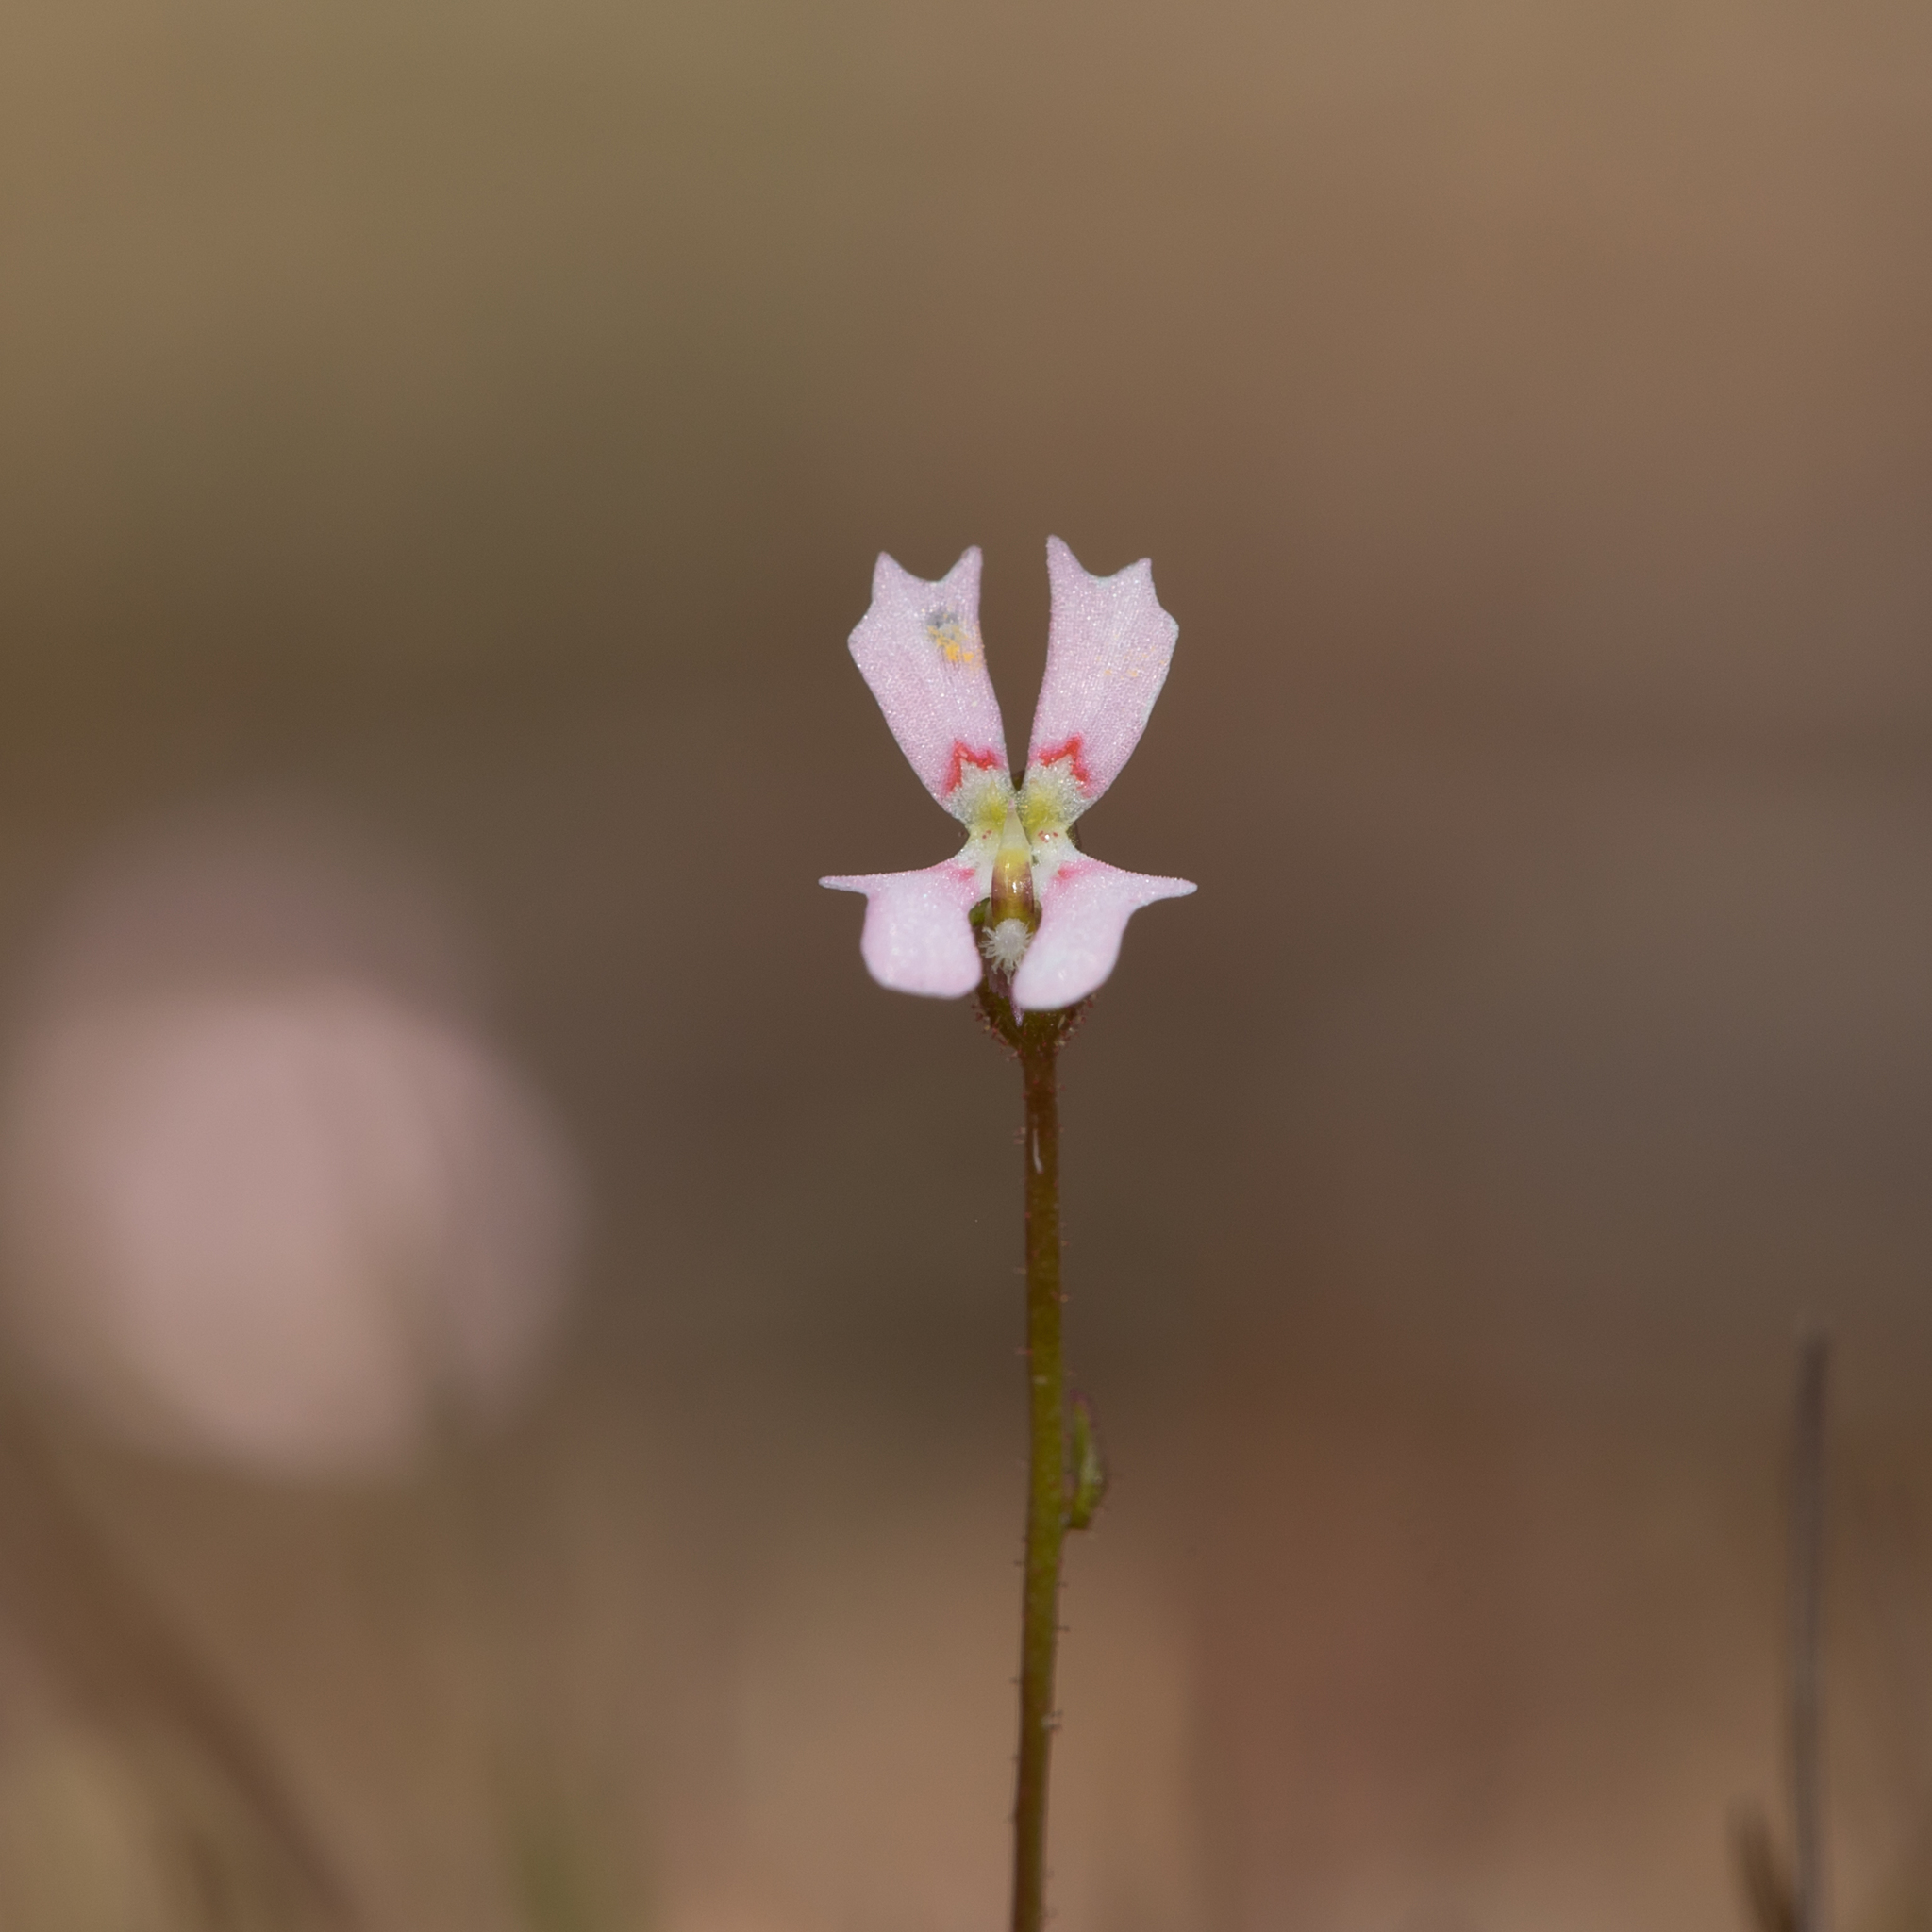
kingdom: Plantae
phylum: Tracheophyta
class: Magnoliopsida
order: Asterales
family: Stylidiaceae
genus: Stylidium
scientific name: Stylidium calcaratum
